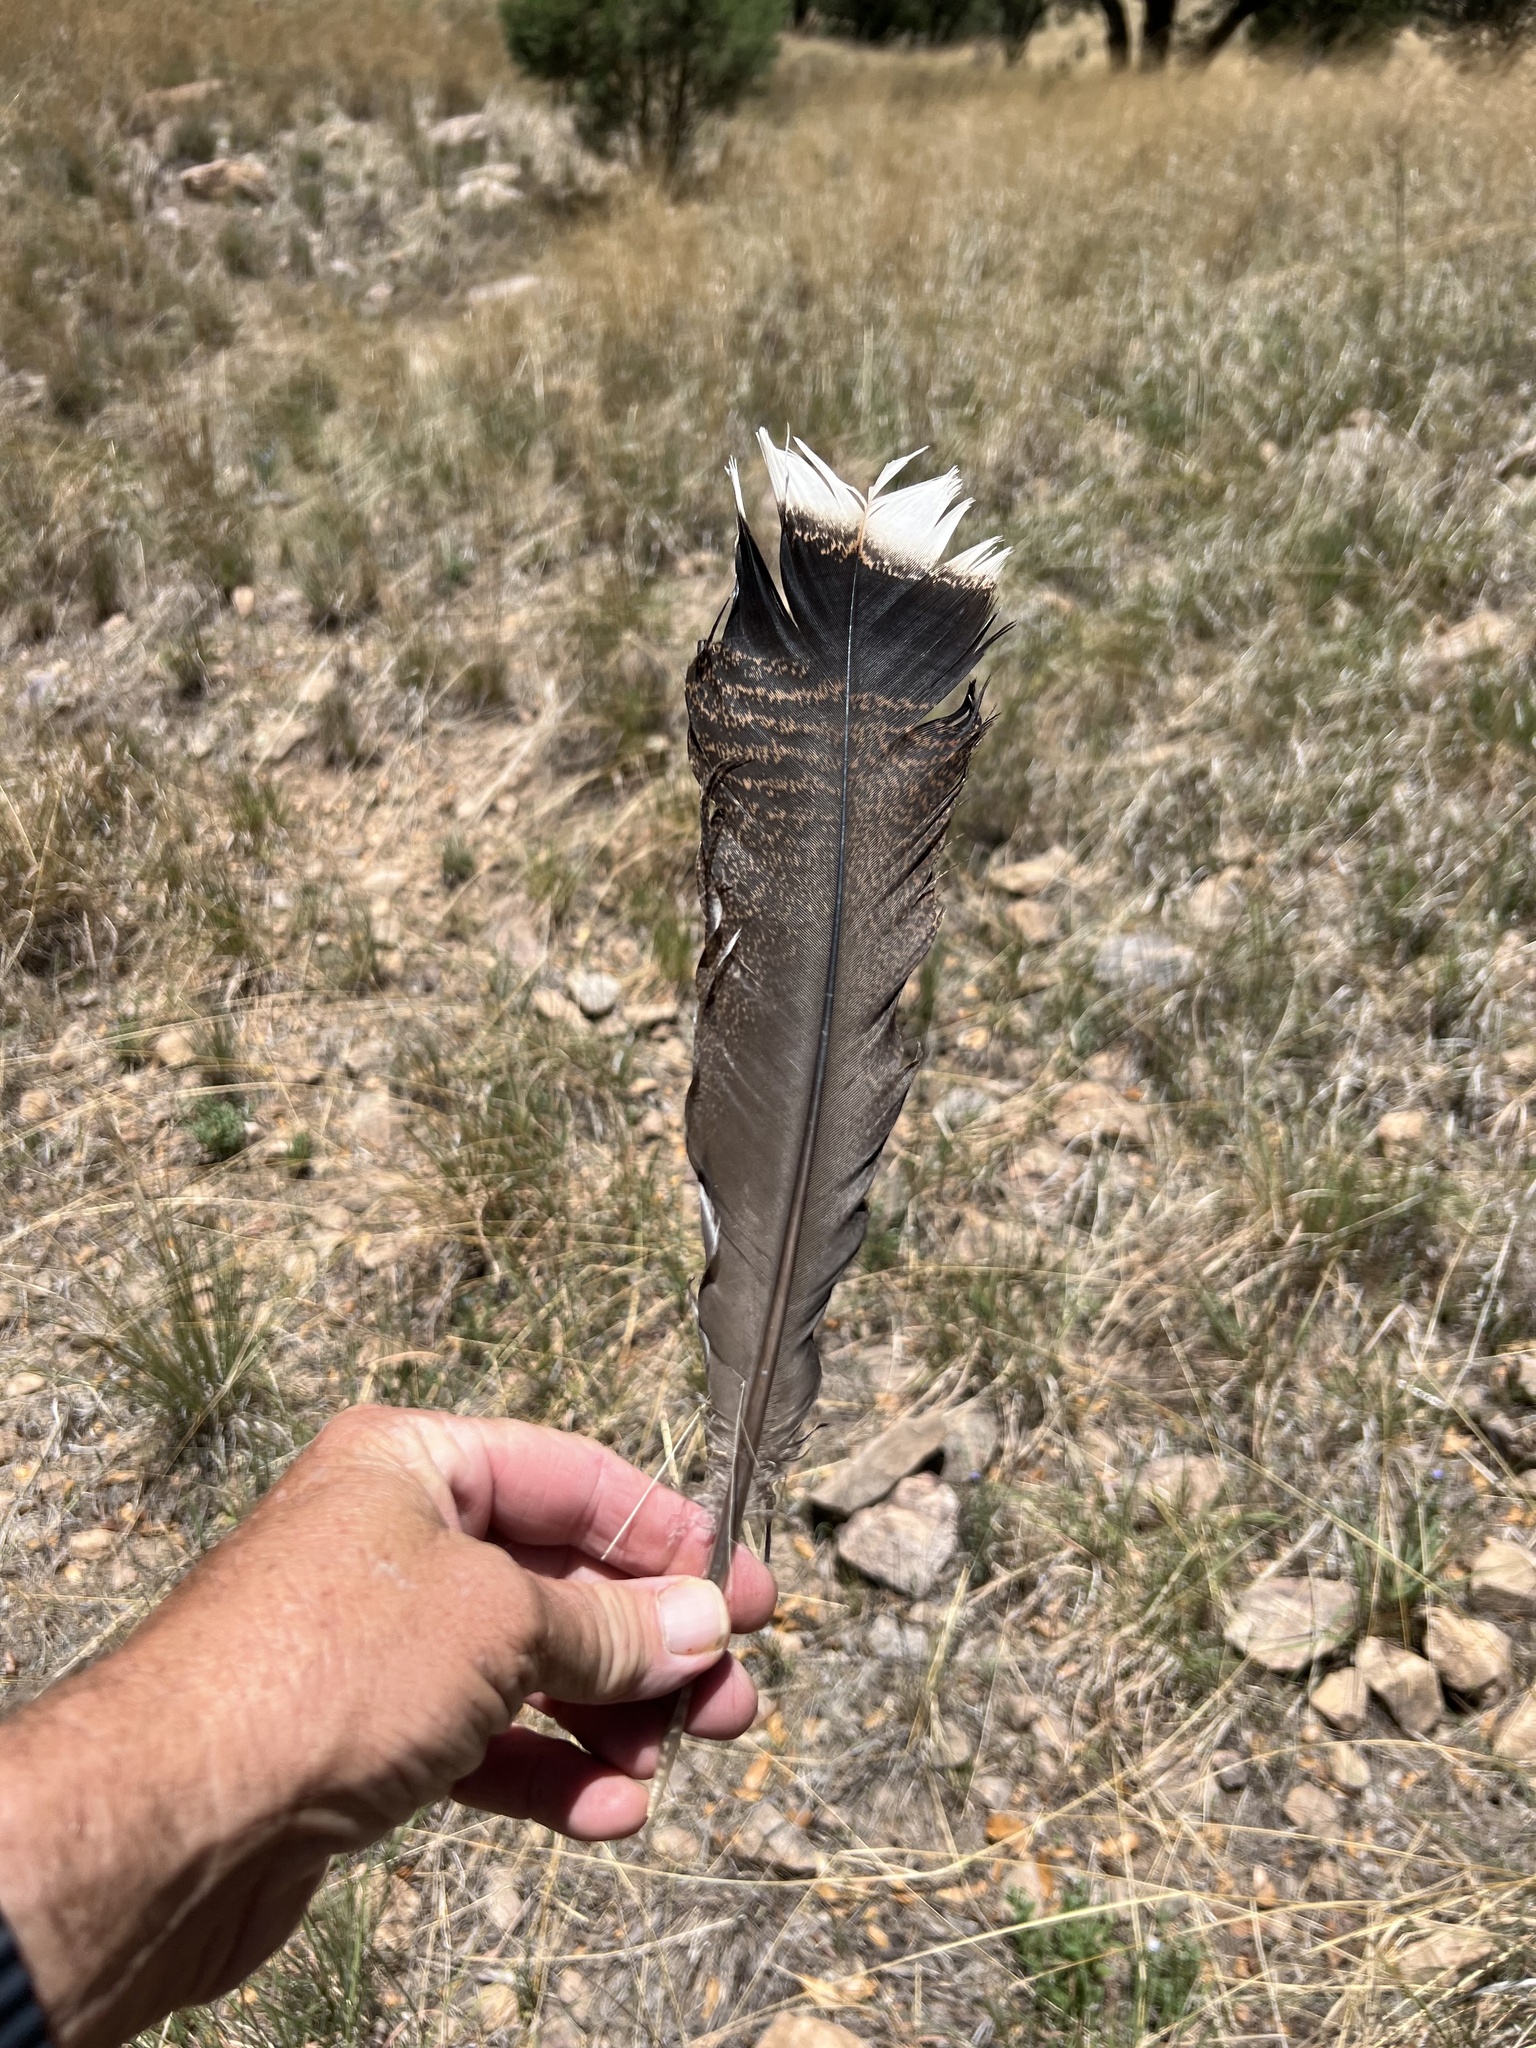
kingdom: Animalia
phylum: Chordata
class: Aves
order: Galliformes
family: Phasianidae
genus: Meleagris
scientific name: Meleagris gallopavo
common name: Wild turkey
